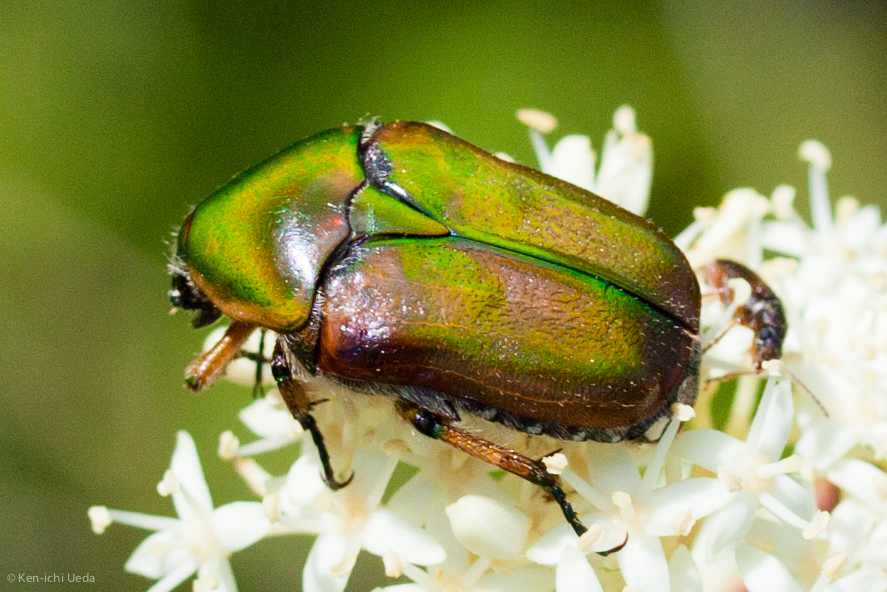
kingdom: Animalia
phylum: Arthropoda
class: Insecta
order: Coleoptera
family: Scarabaeidae
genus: Euphoria
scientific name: Euphoria fulgida
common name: Emerald euphoria
